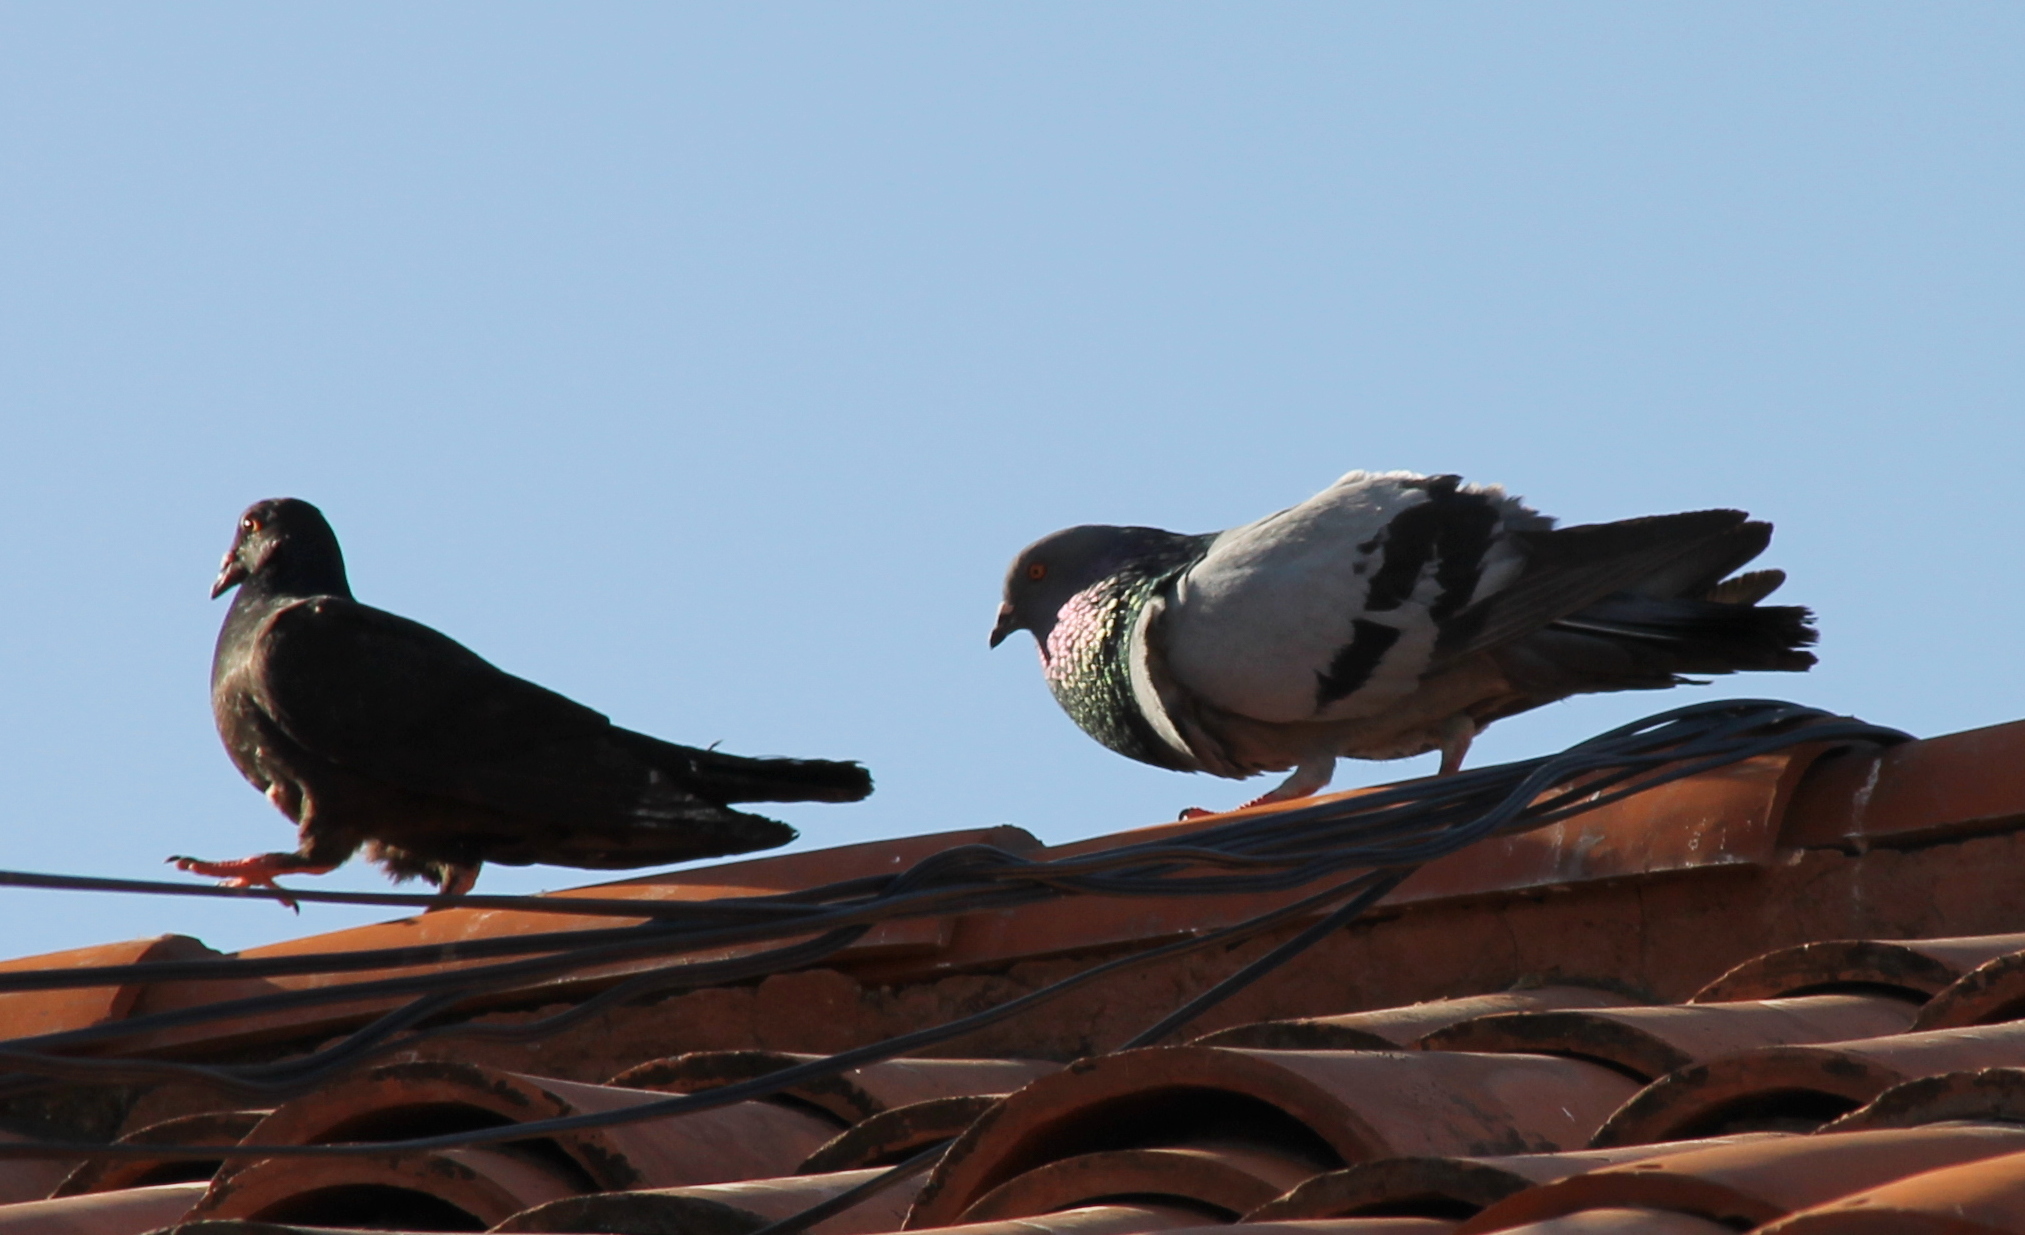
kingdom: Animalia
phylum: Chordata
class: Aves
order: Columbiformes
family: Columbidae
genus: Columba
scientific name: Columba livia
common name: Rock pigeon
